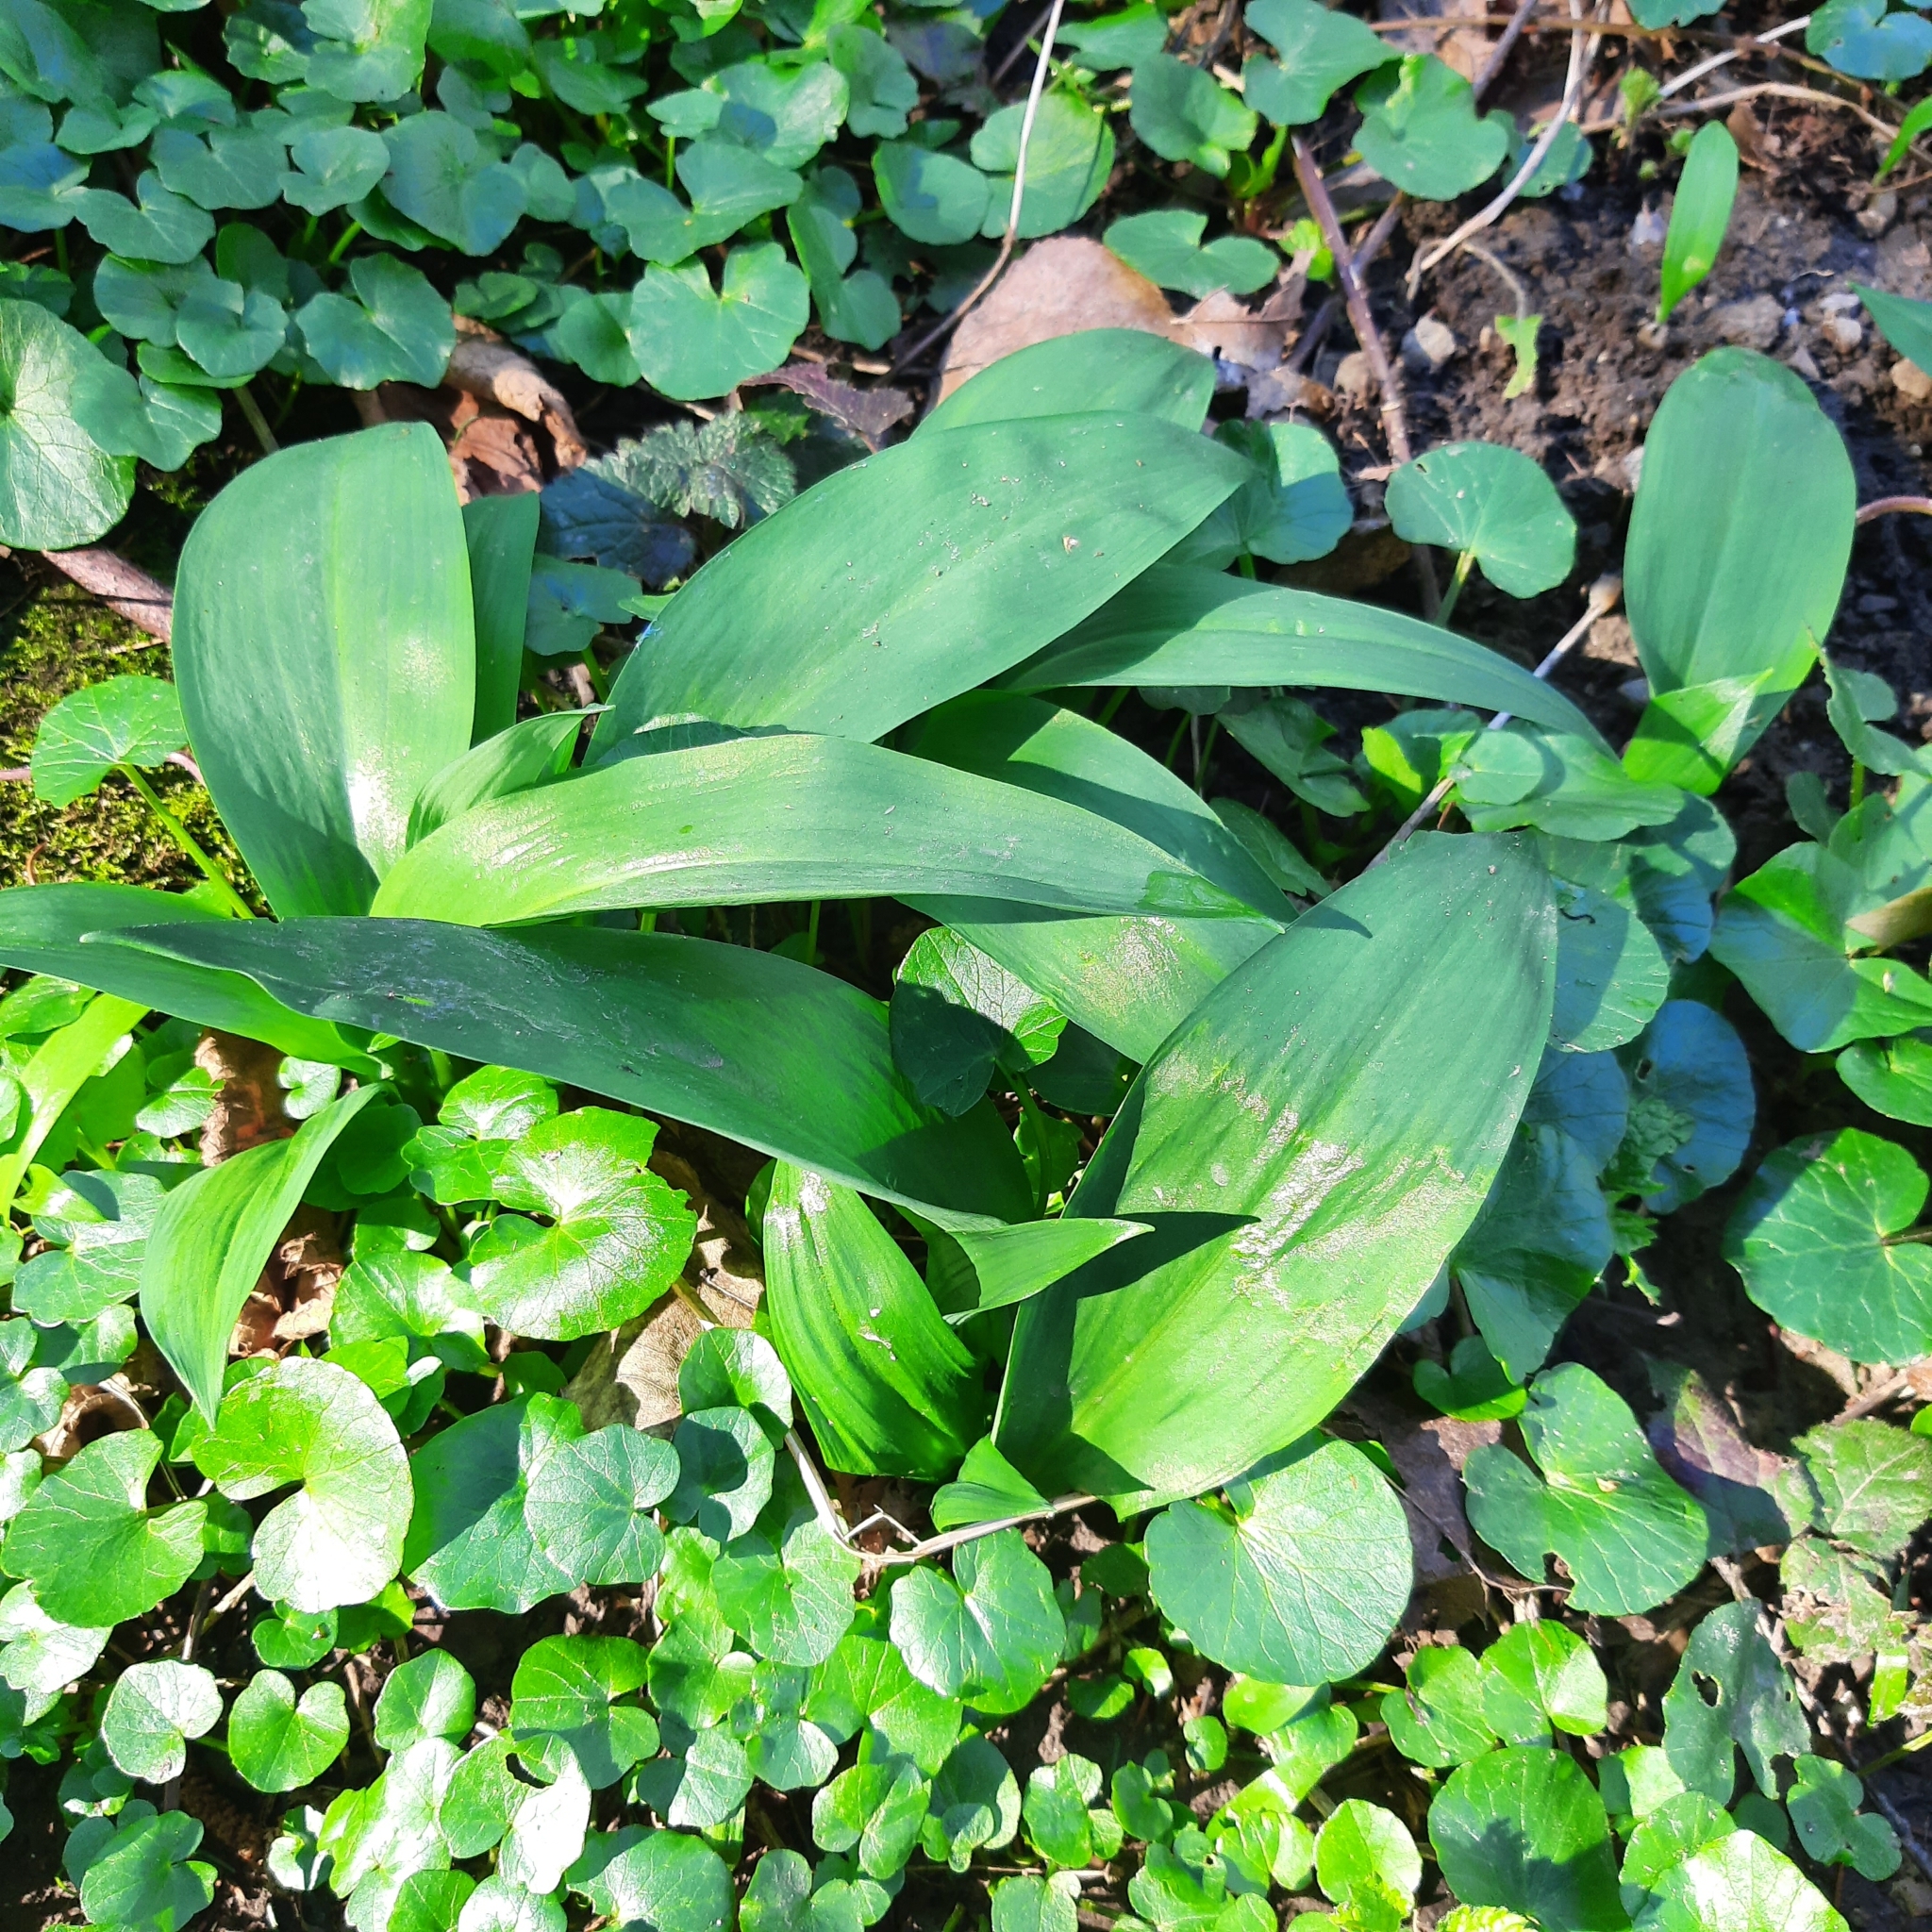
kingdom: Plantae
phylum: Tracheophyta
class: Liliopsida
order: Asparagales
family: Amaryllidaceae
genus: Allium
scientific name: Allium ursinum
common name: Ramsons
